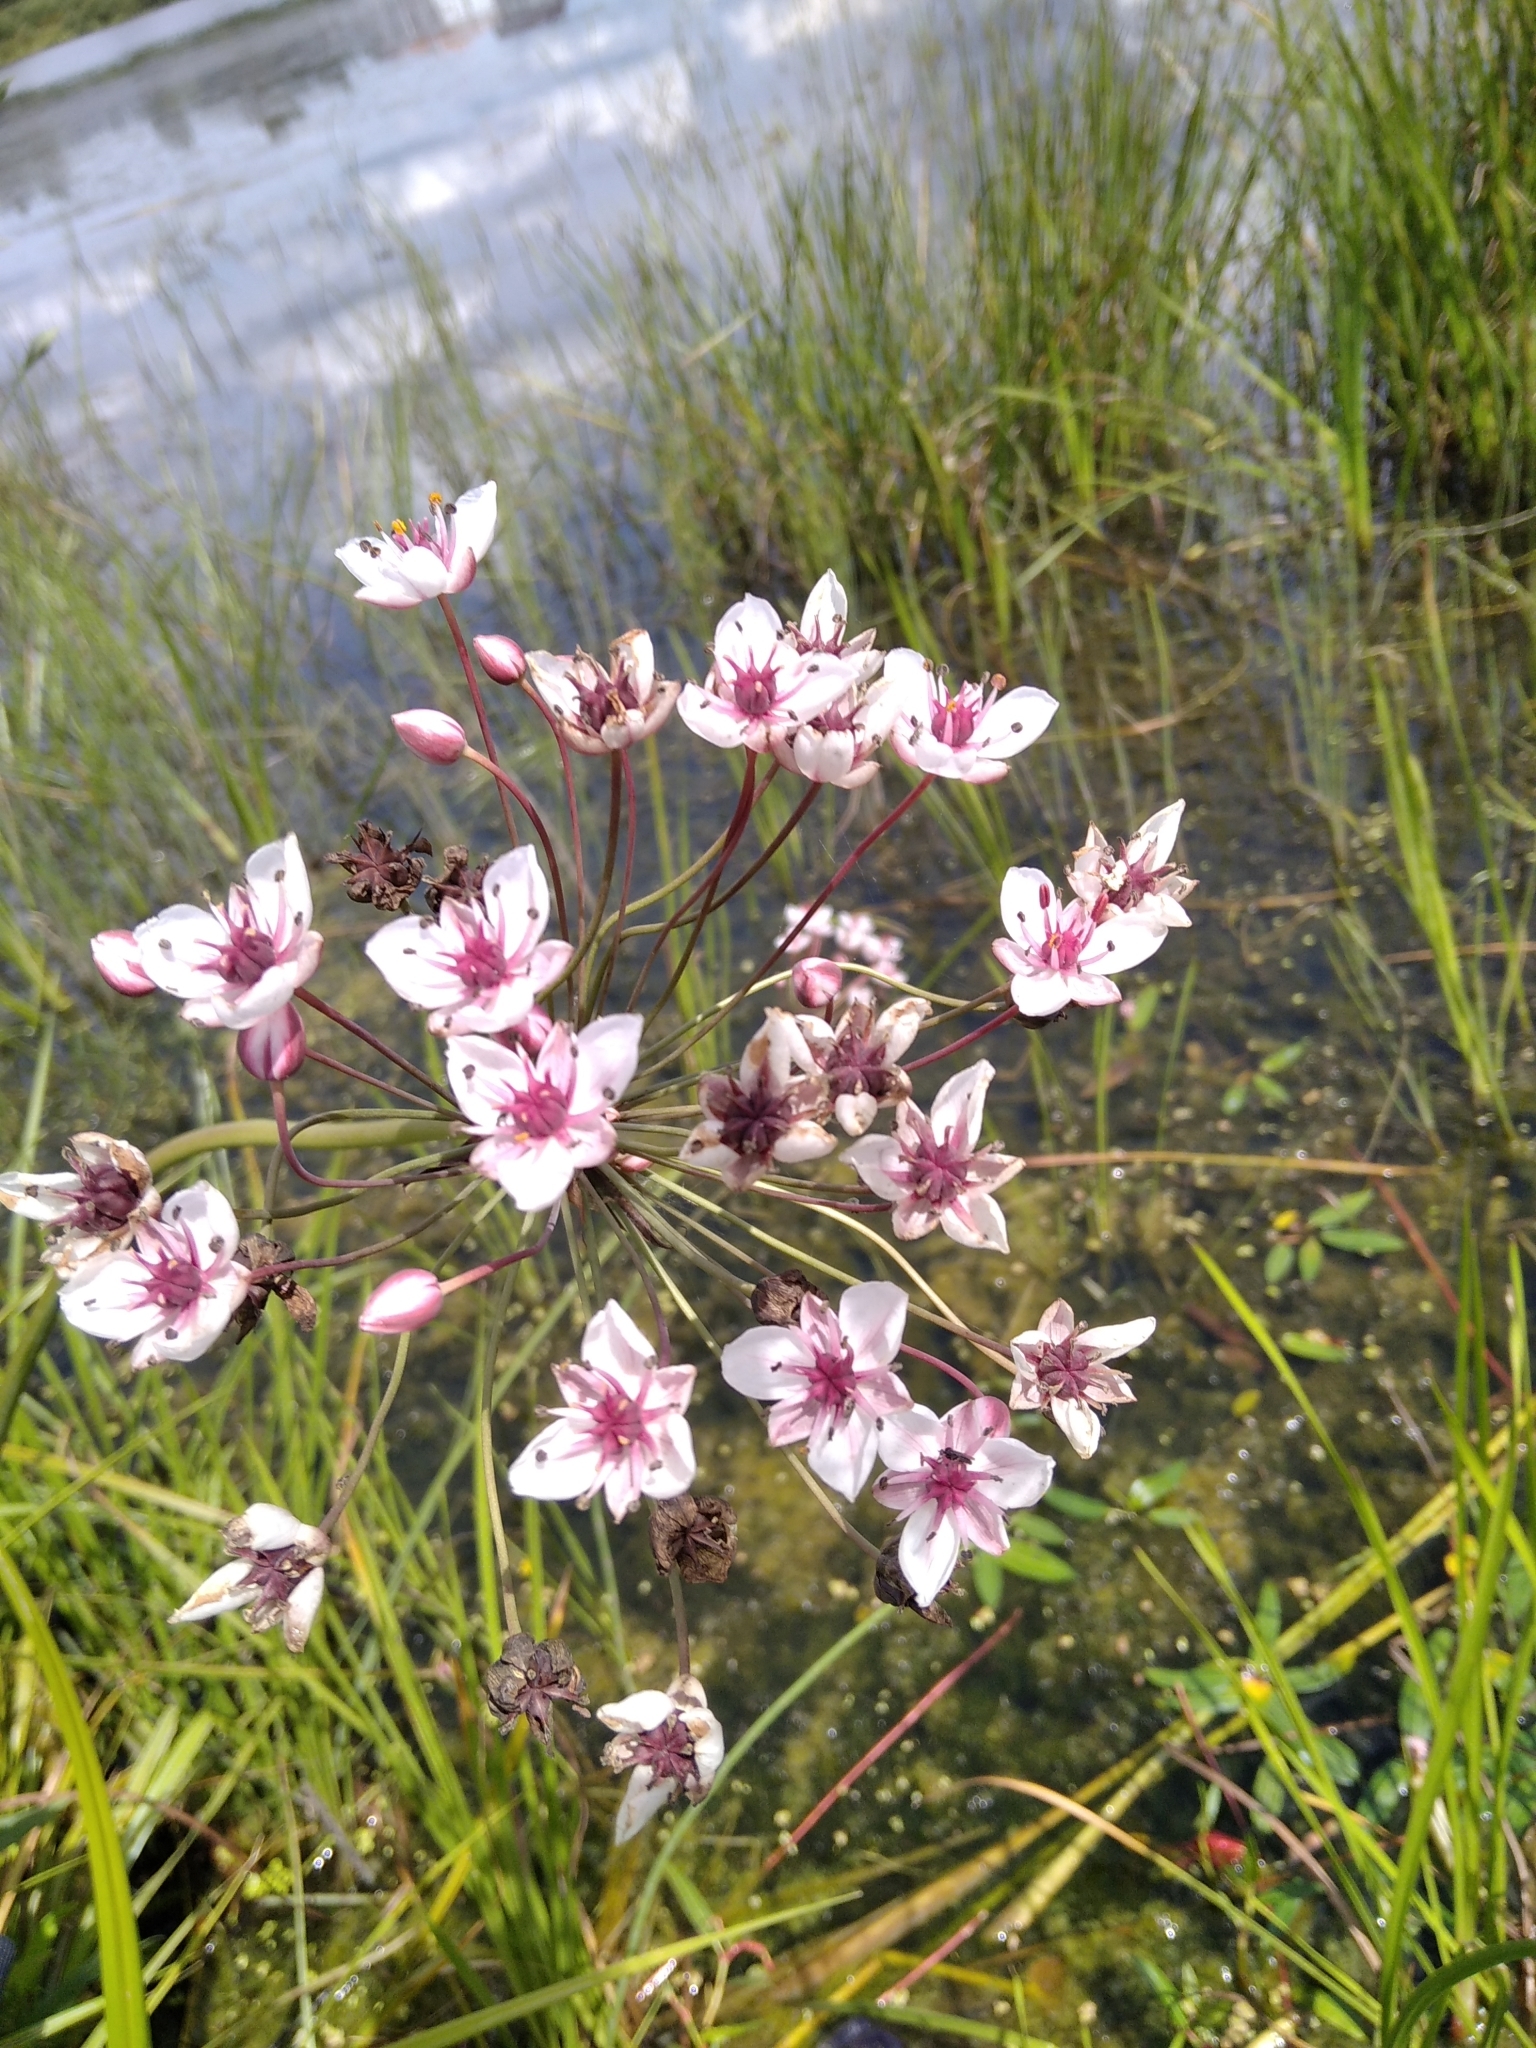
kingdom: Plantae
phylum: Tracheophyta
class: Liliopsida
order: Alismatales
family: Butomaceae
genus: Butomus
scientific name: Butomus umbellatus
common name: Flowering-rush
